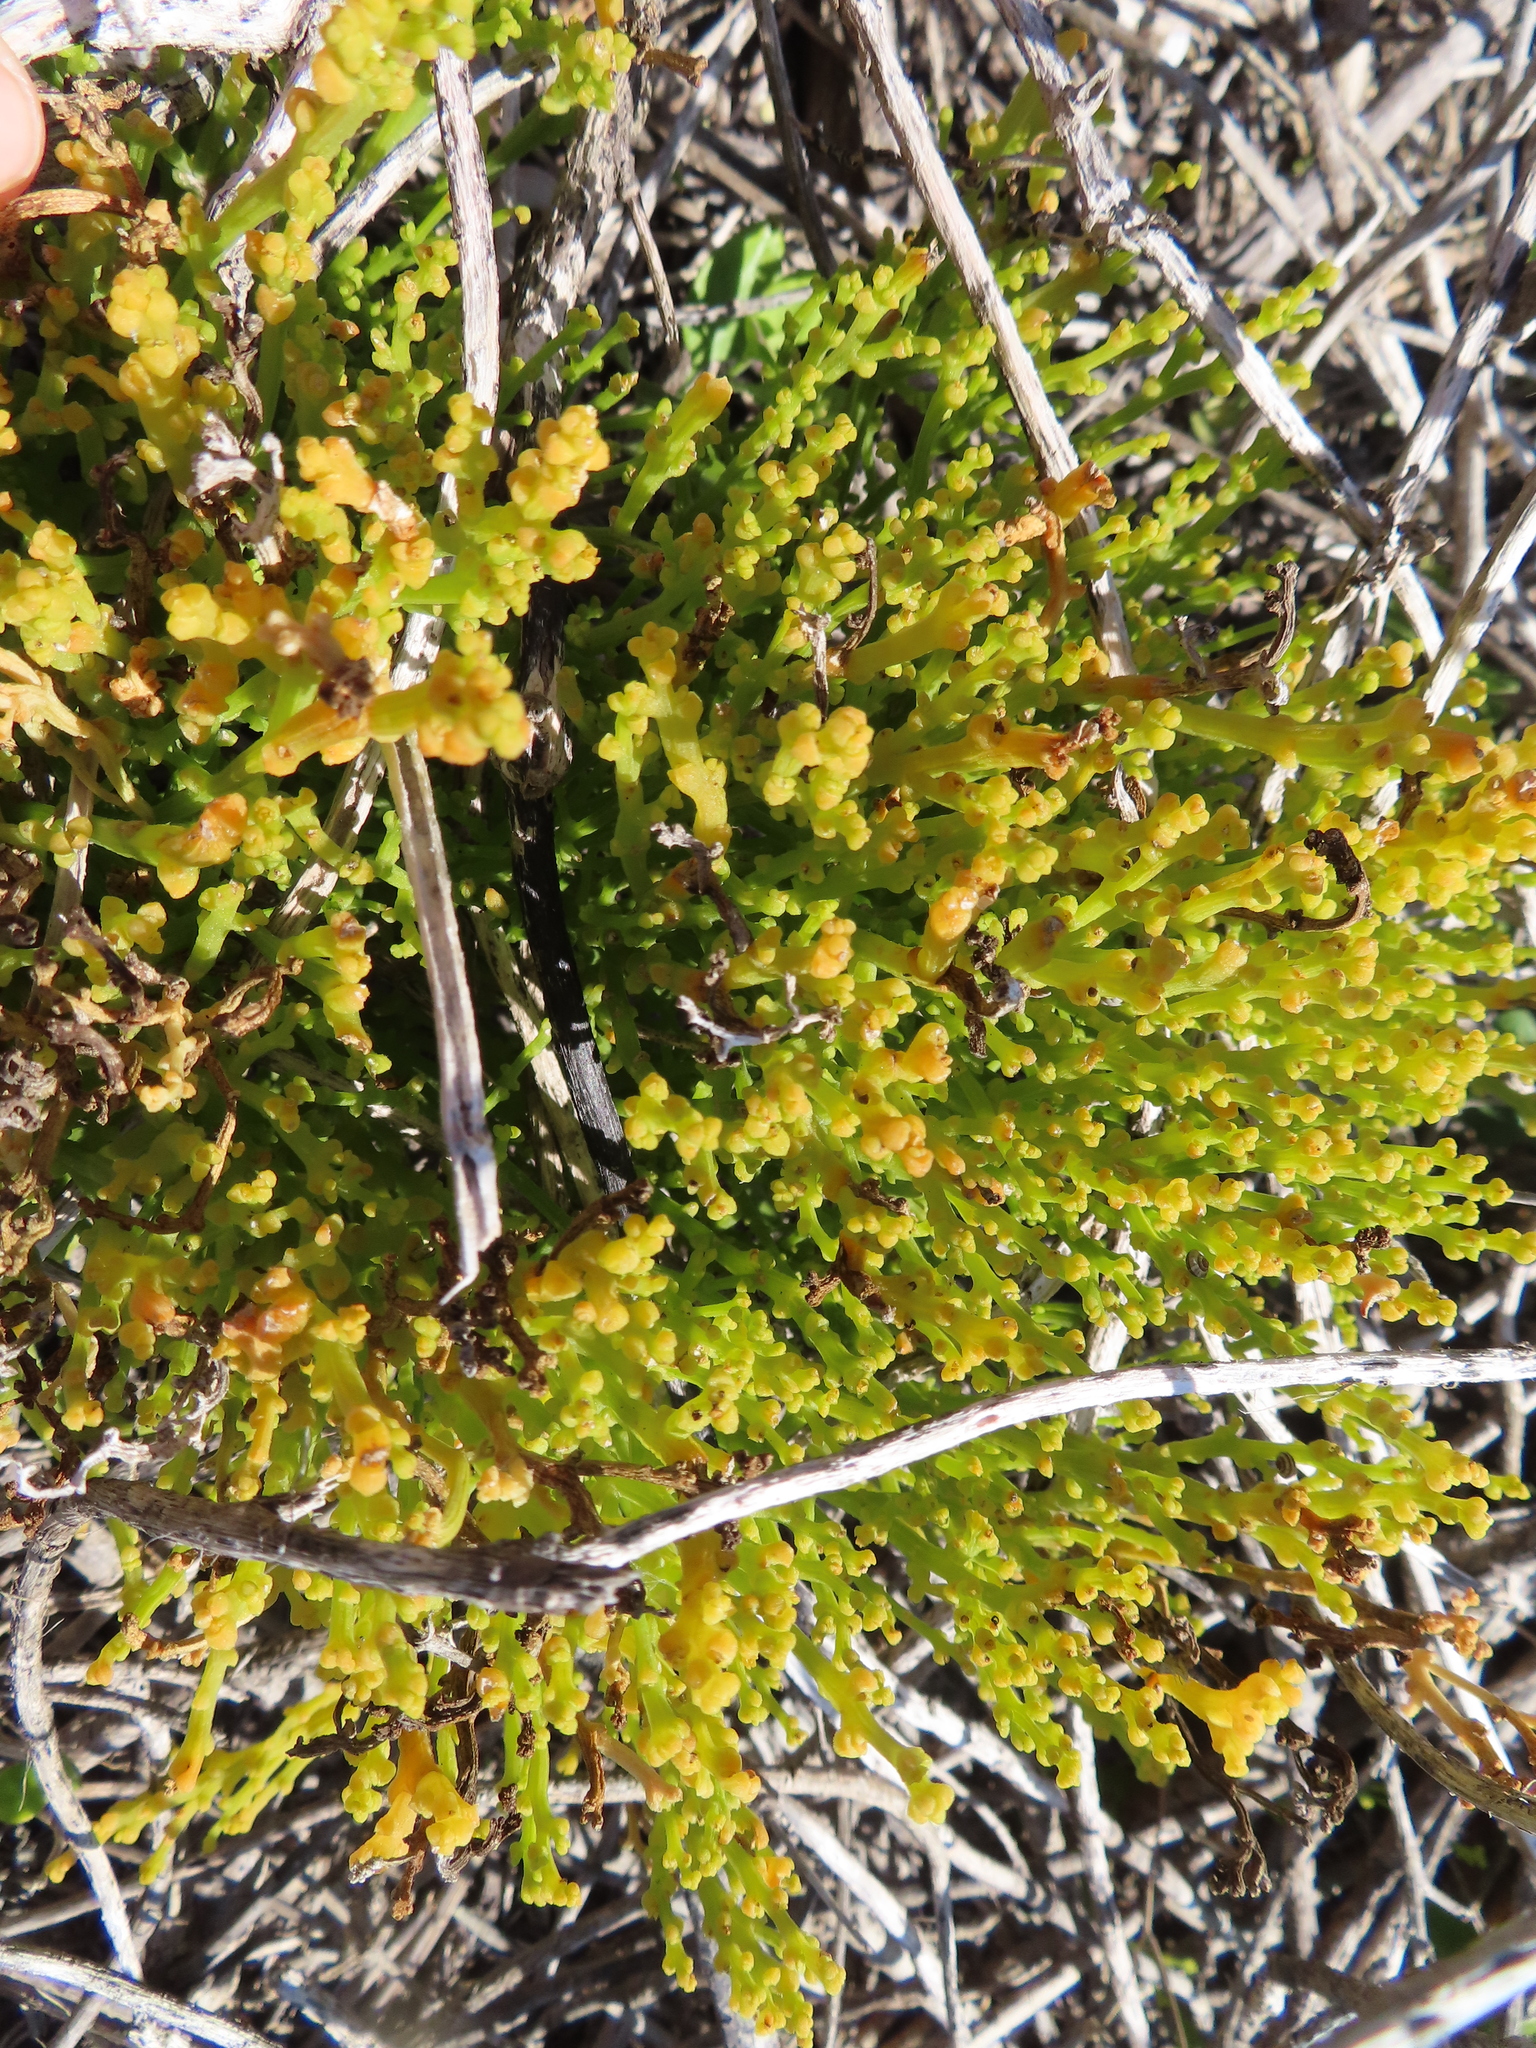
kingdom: Plantae
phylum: Tracheophyta
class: Magnoliopsida
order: Santalales
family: Thesiaceae
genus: Thesium
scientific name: Thesium fragile
